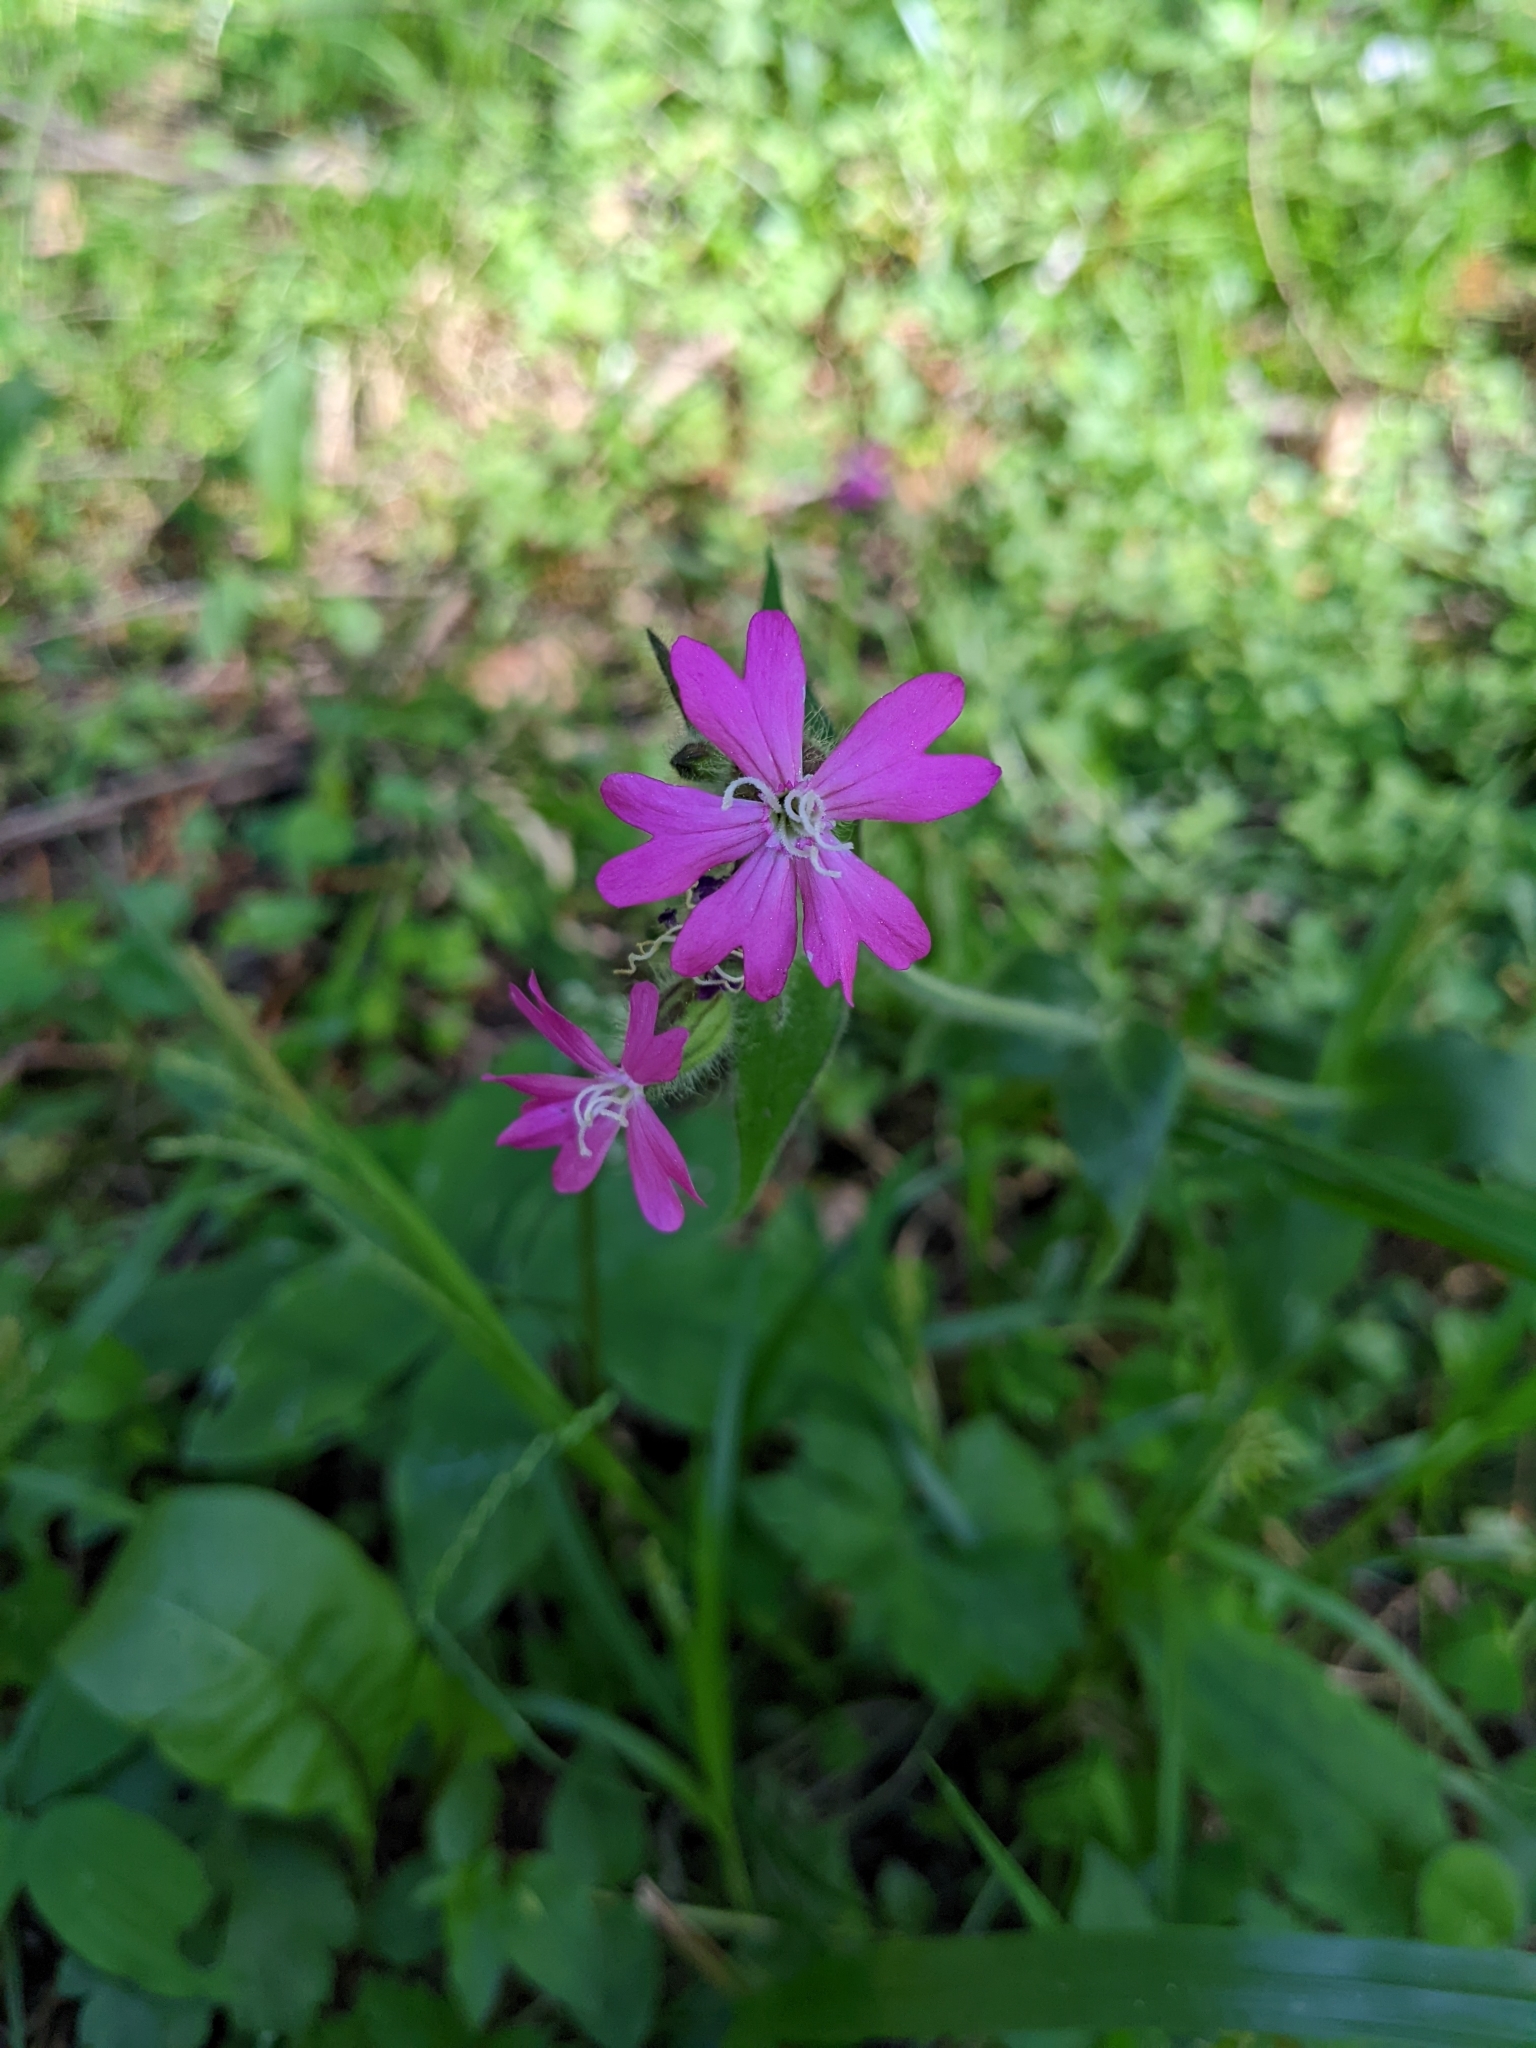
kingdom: Plantae
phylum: Tracheophyta
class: Magnoliopsida
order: Caryophyllales
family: Caryophyllaceae
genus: Silene
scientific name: Silene dioica
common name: Red campion
